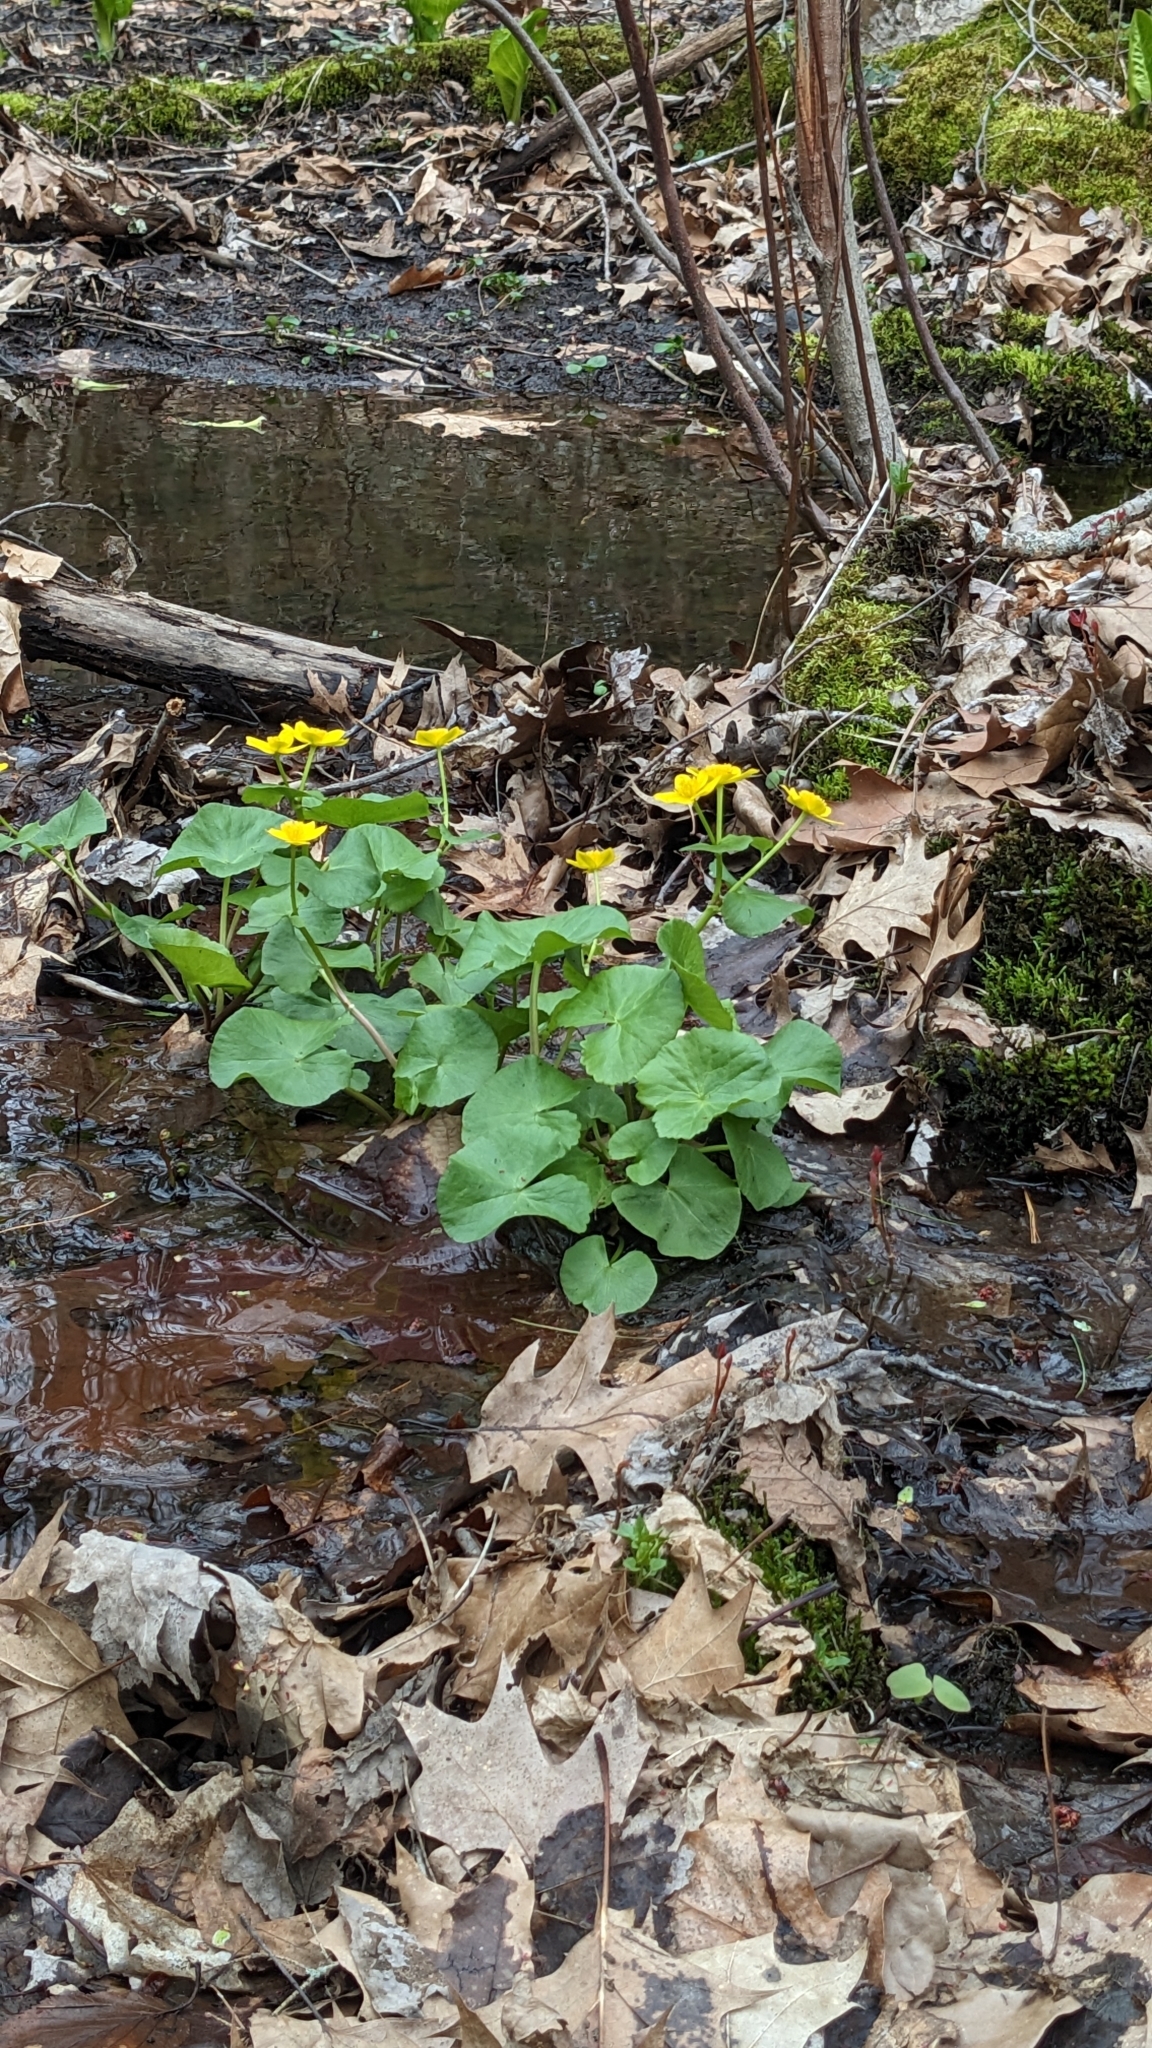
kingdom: Plantae
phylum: Tracheophyta
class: Magnoliopsida
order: Ranunculales
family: Ranunculaceae
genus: Caltha
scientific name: Caltha palustris
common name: Marsh marigold
